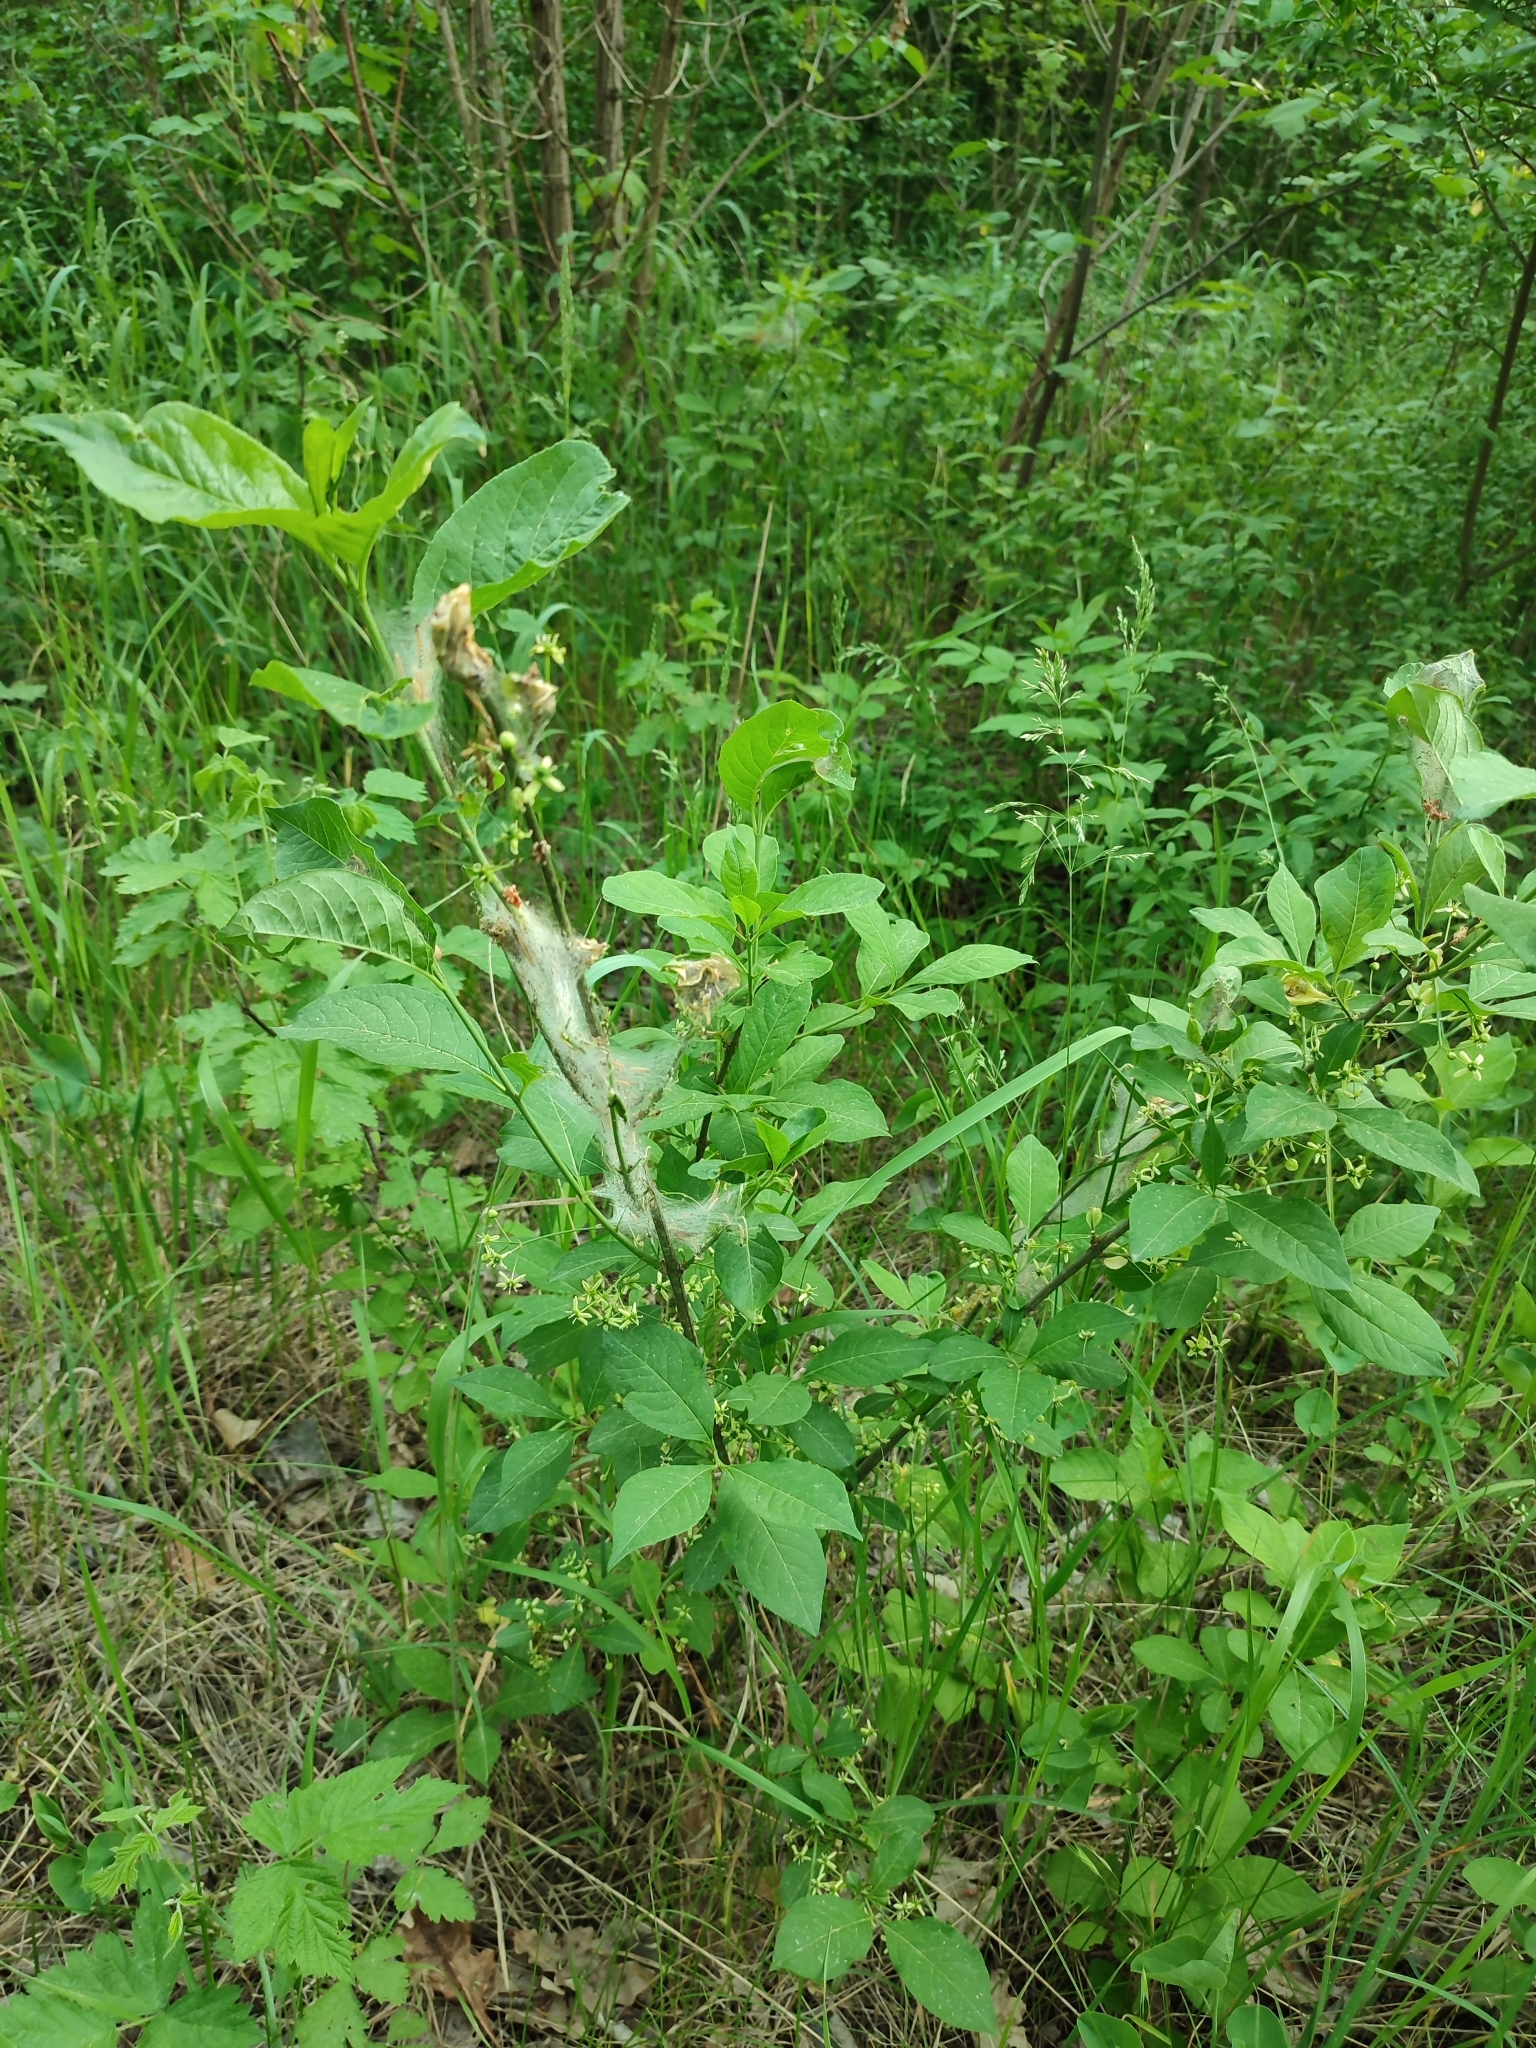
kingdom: Plantae
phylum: Tracheophyta
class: Magnoliopsida
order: Celastrales
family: Celastraceae
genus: Euonymus
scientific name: Euonymus europaeus
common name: Spindle
